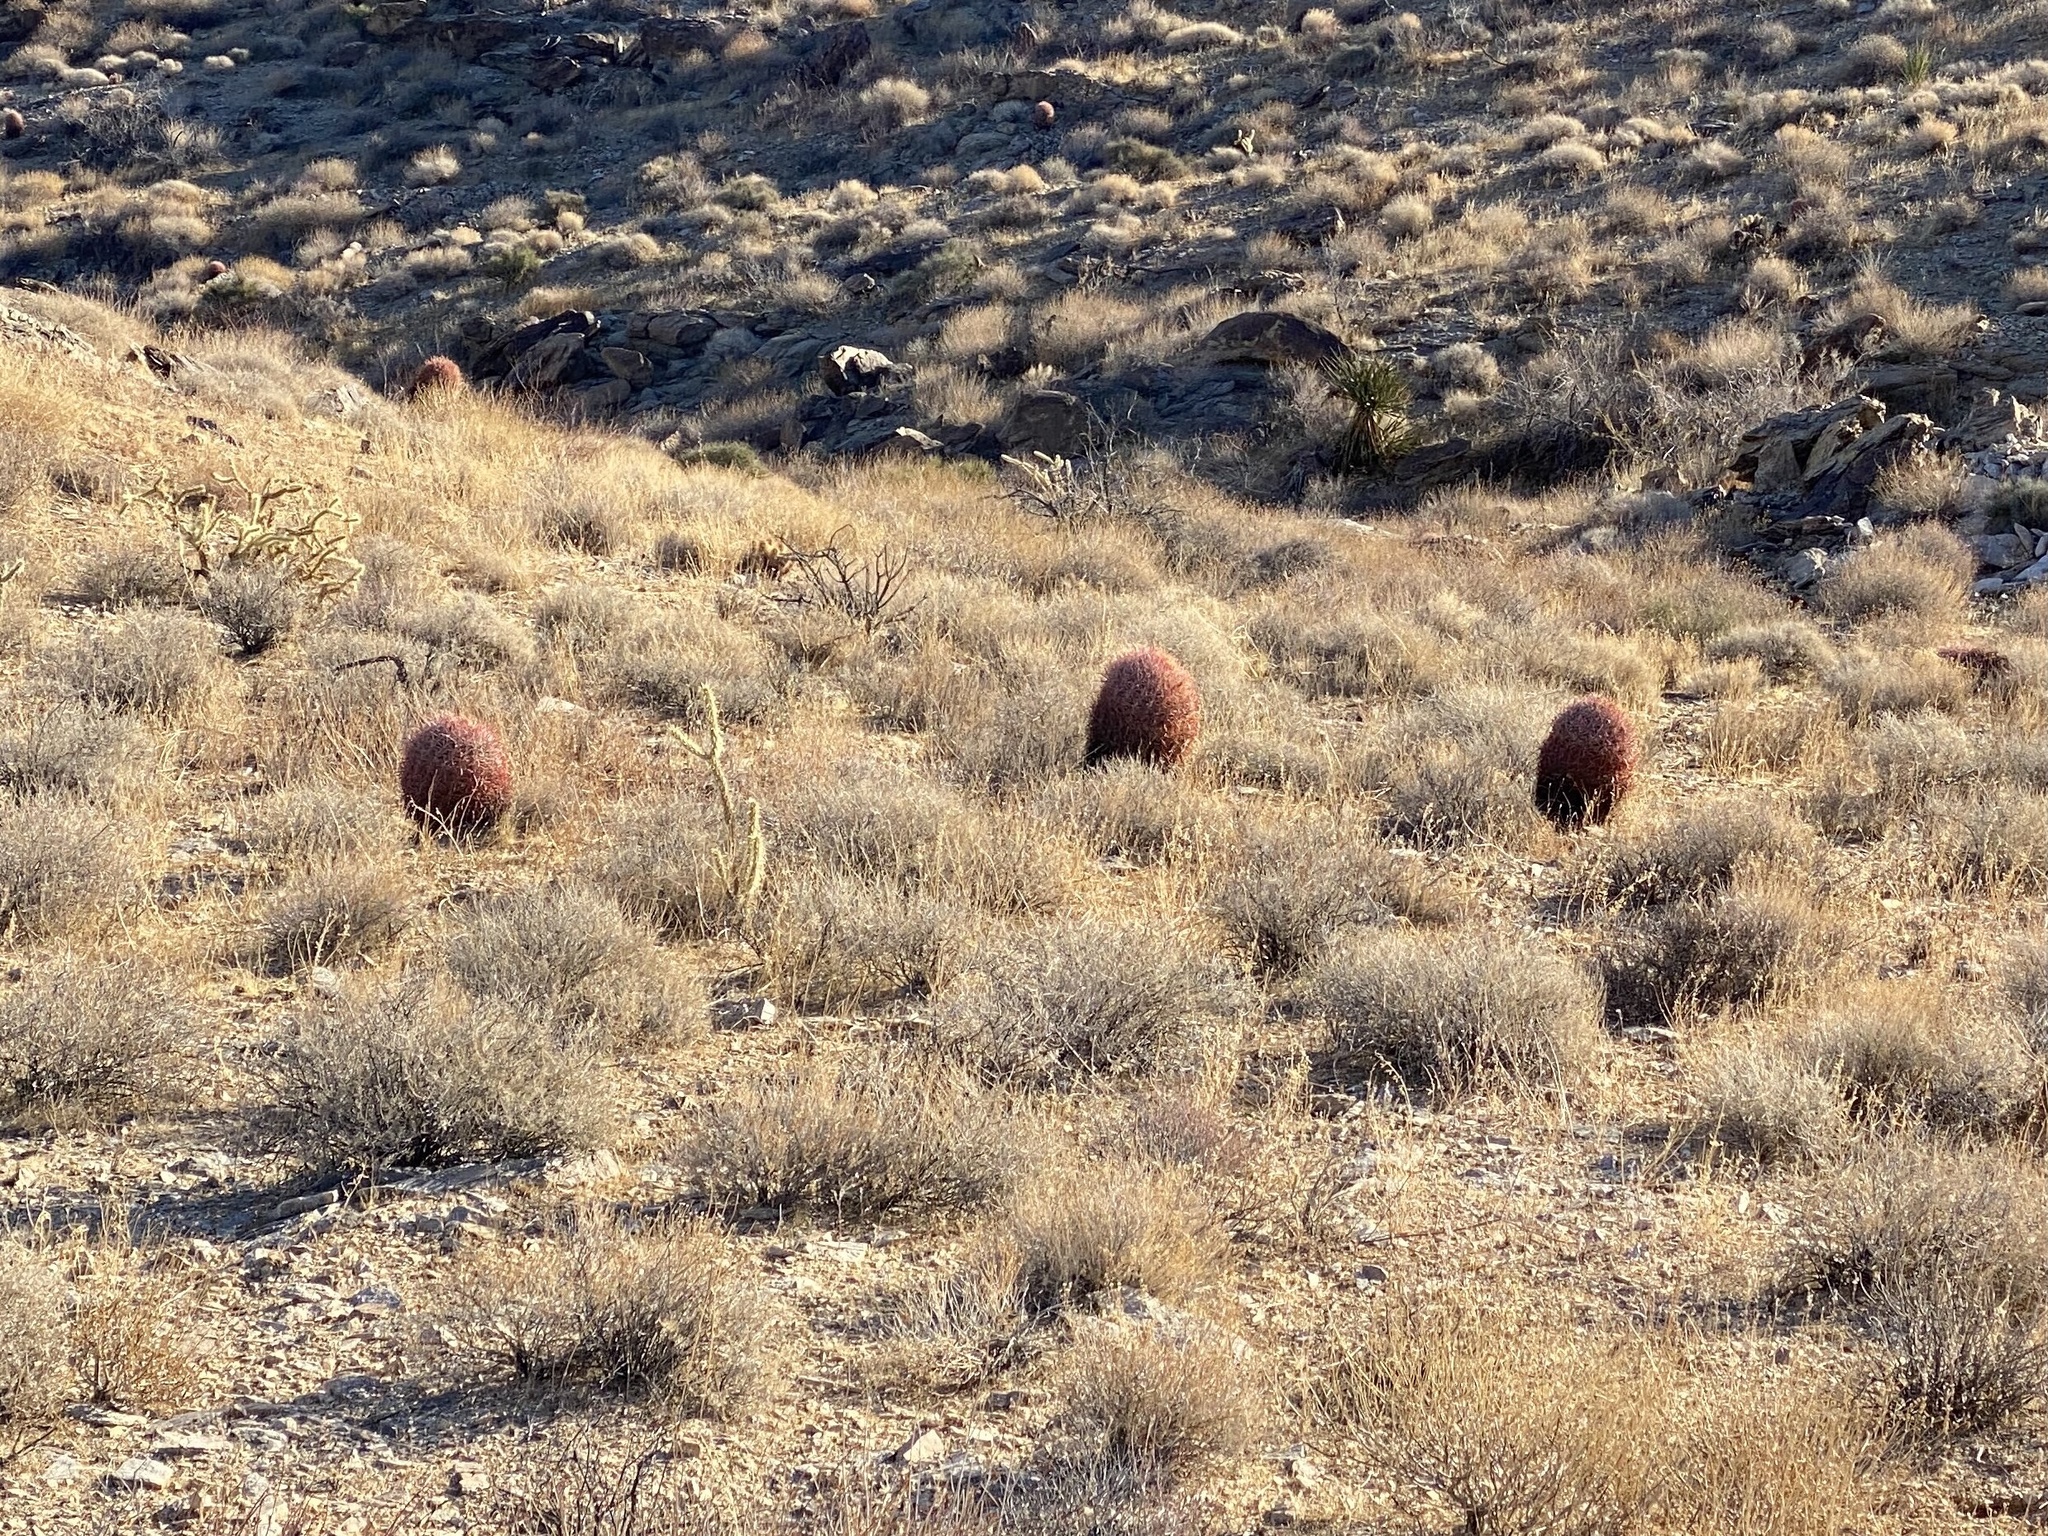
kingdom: Plantae
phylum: Tracheophyta
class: Magnoliopsida
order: Caryophyllales
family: Cactaceae
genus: Ferocactus
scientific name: Ferocactus cylindraceus
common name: California barrel cactus
